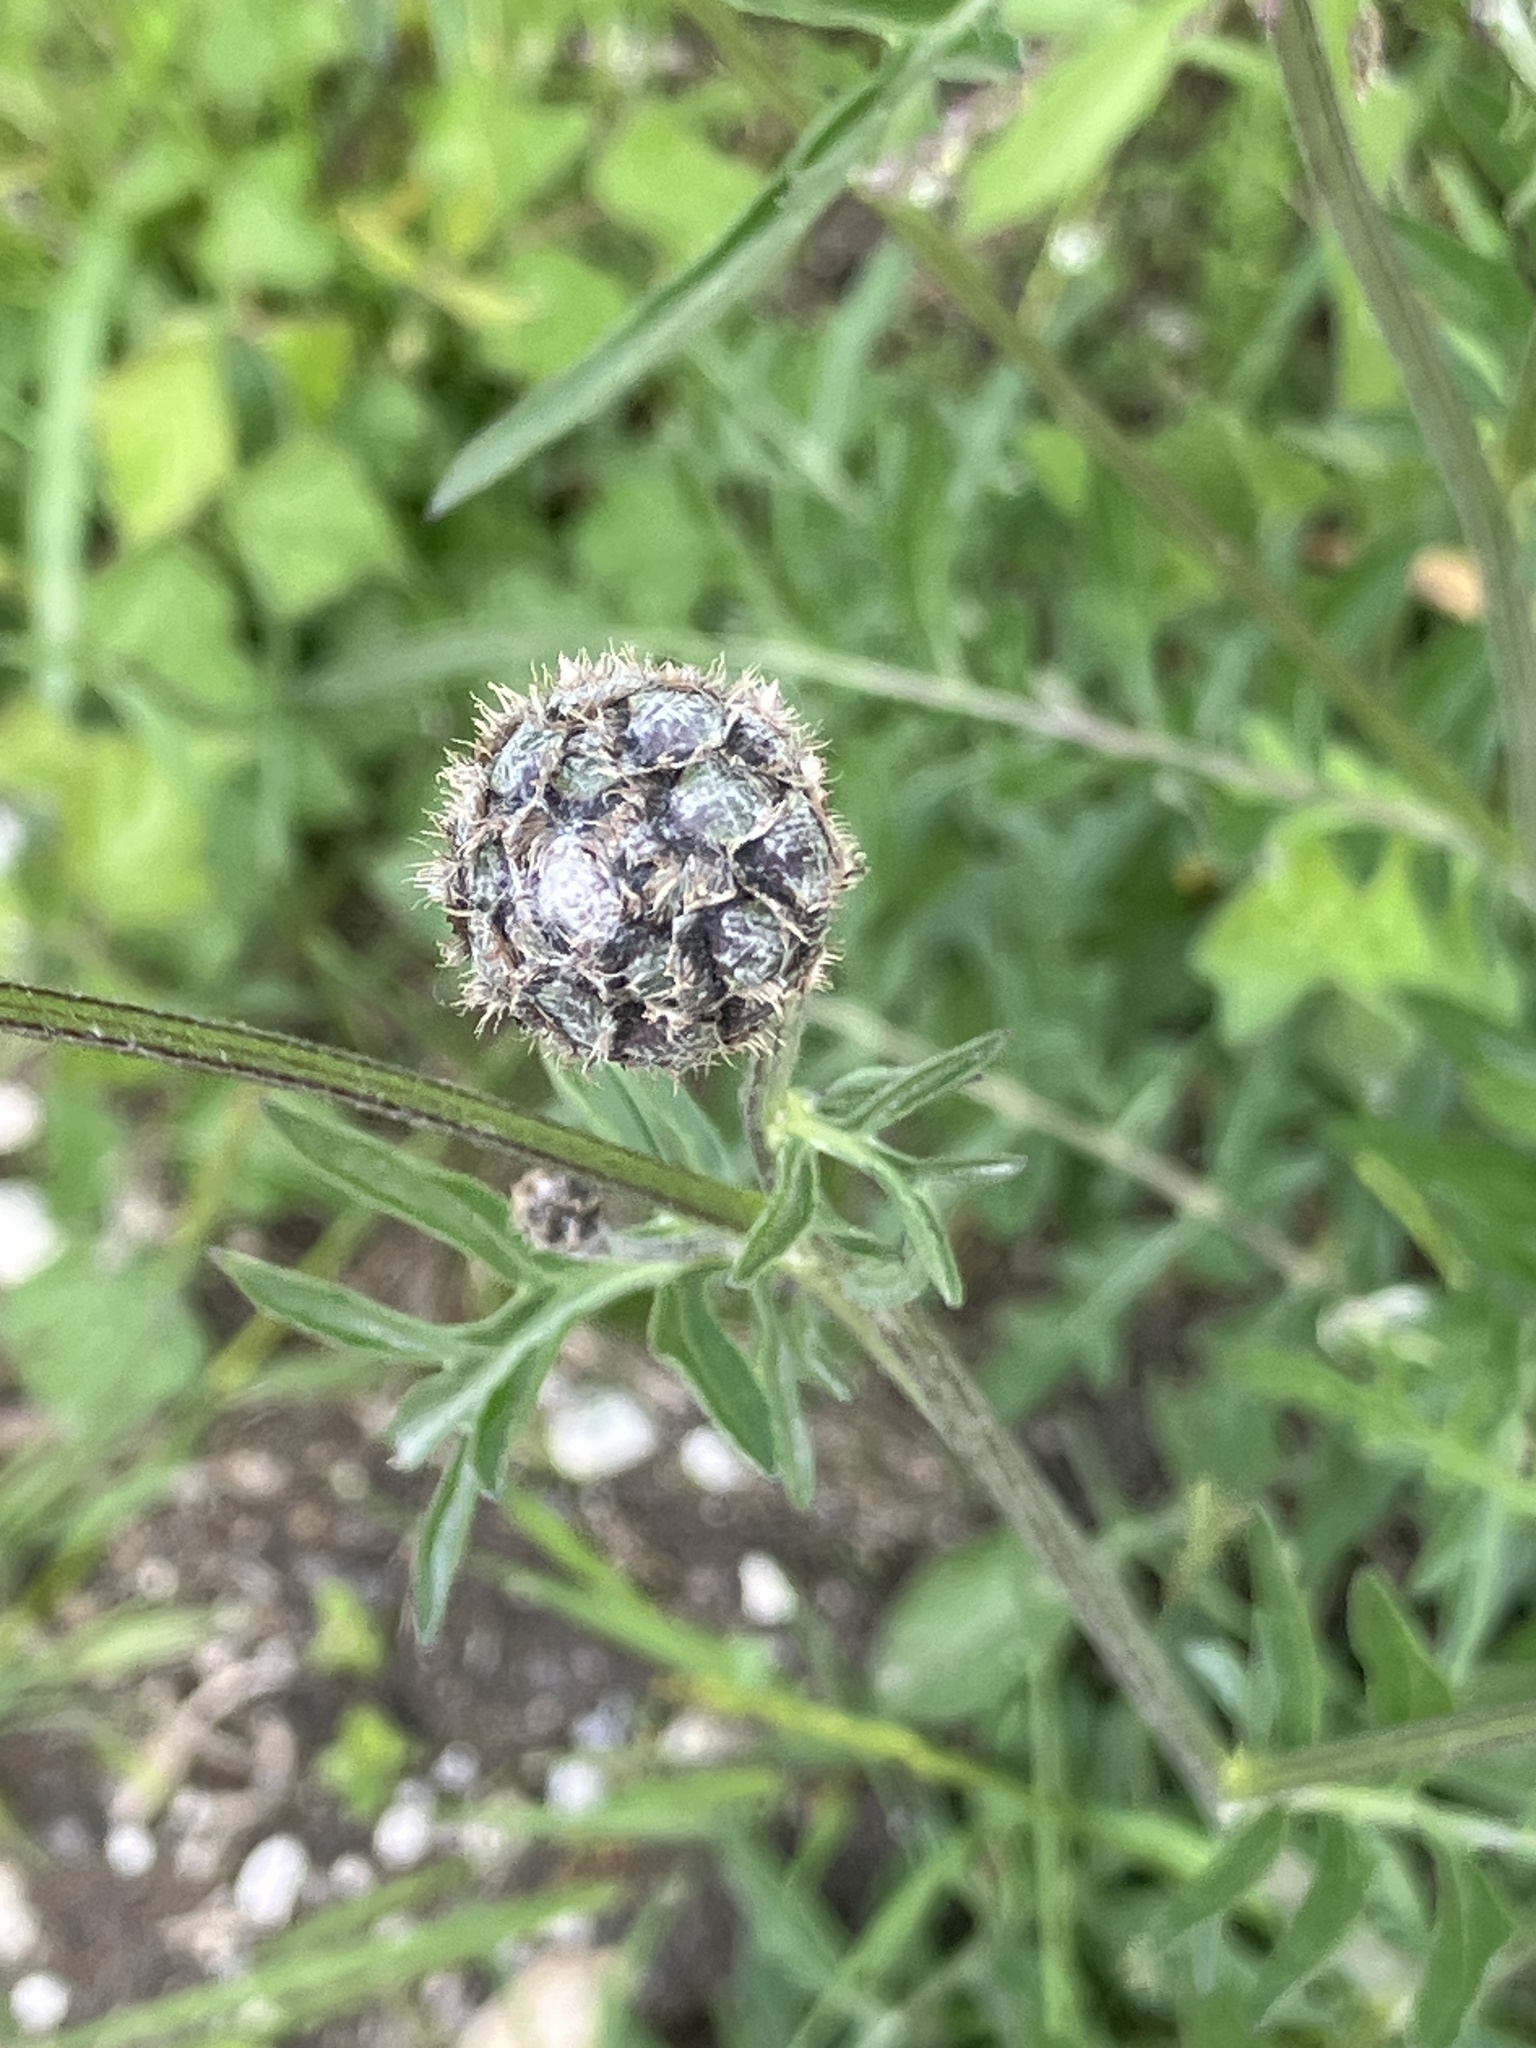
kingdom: Plantae
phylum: Tracheophyta
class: Magnoliopsida
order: Asterales
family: Asteraceae
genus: Centaurea
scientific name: Centaurea scabiosa
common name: Greater knapweed
